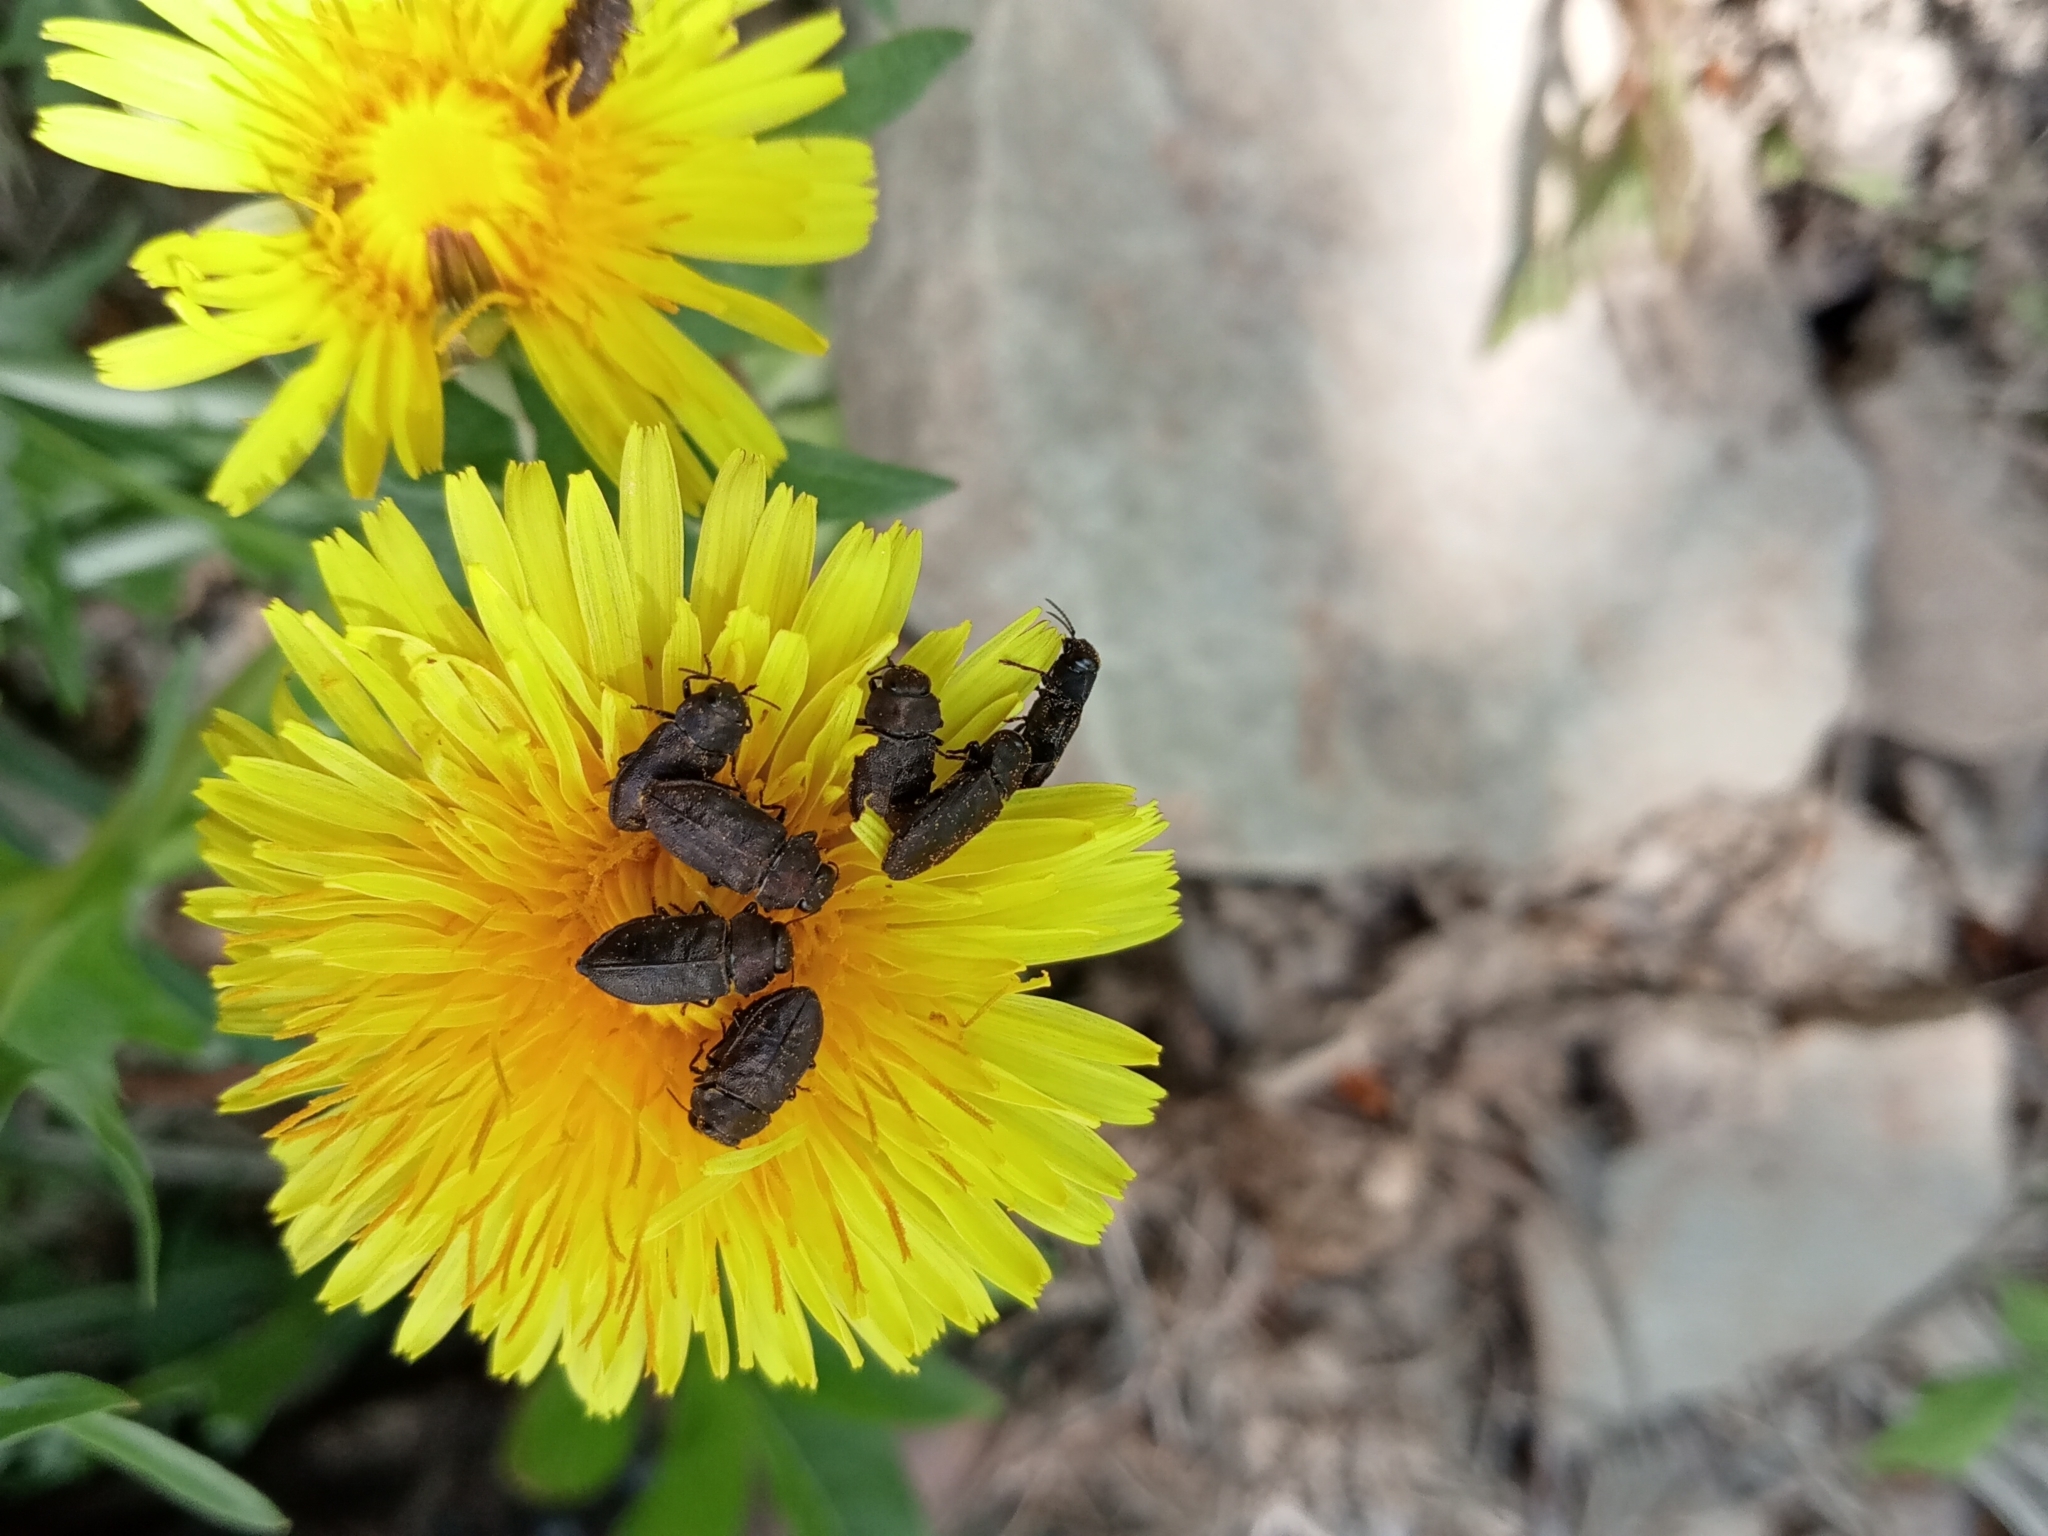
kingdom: Animalia
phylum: Arthropoda
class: Insecta
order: Coleoptera
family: Buprestidae
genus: Anthaxia
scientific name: Anthaxia helvetica
